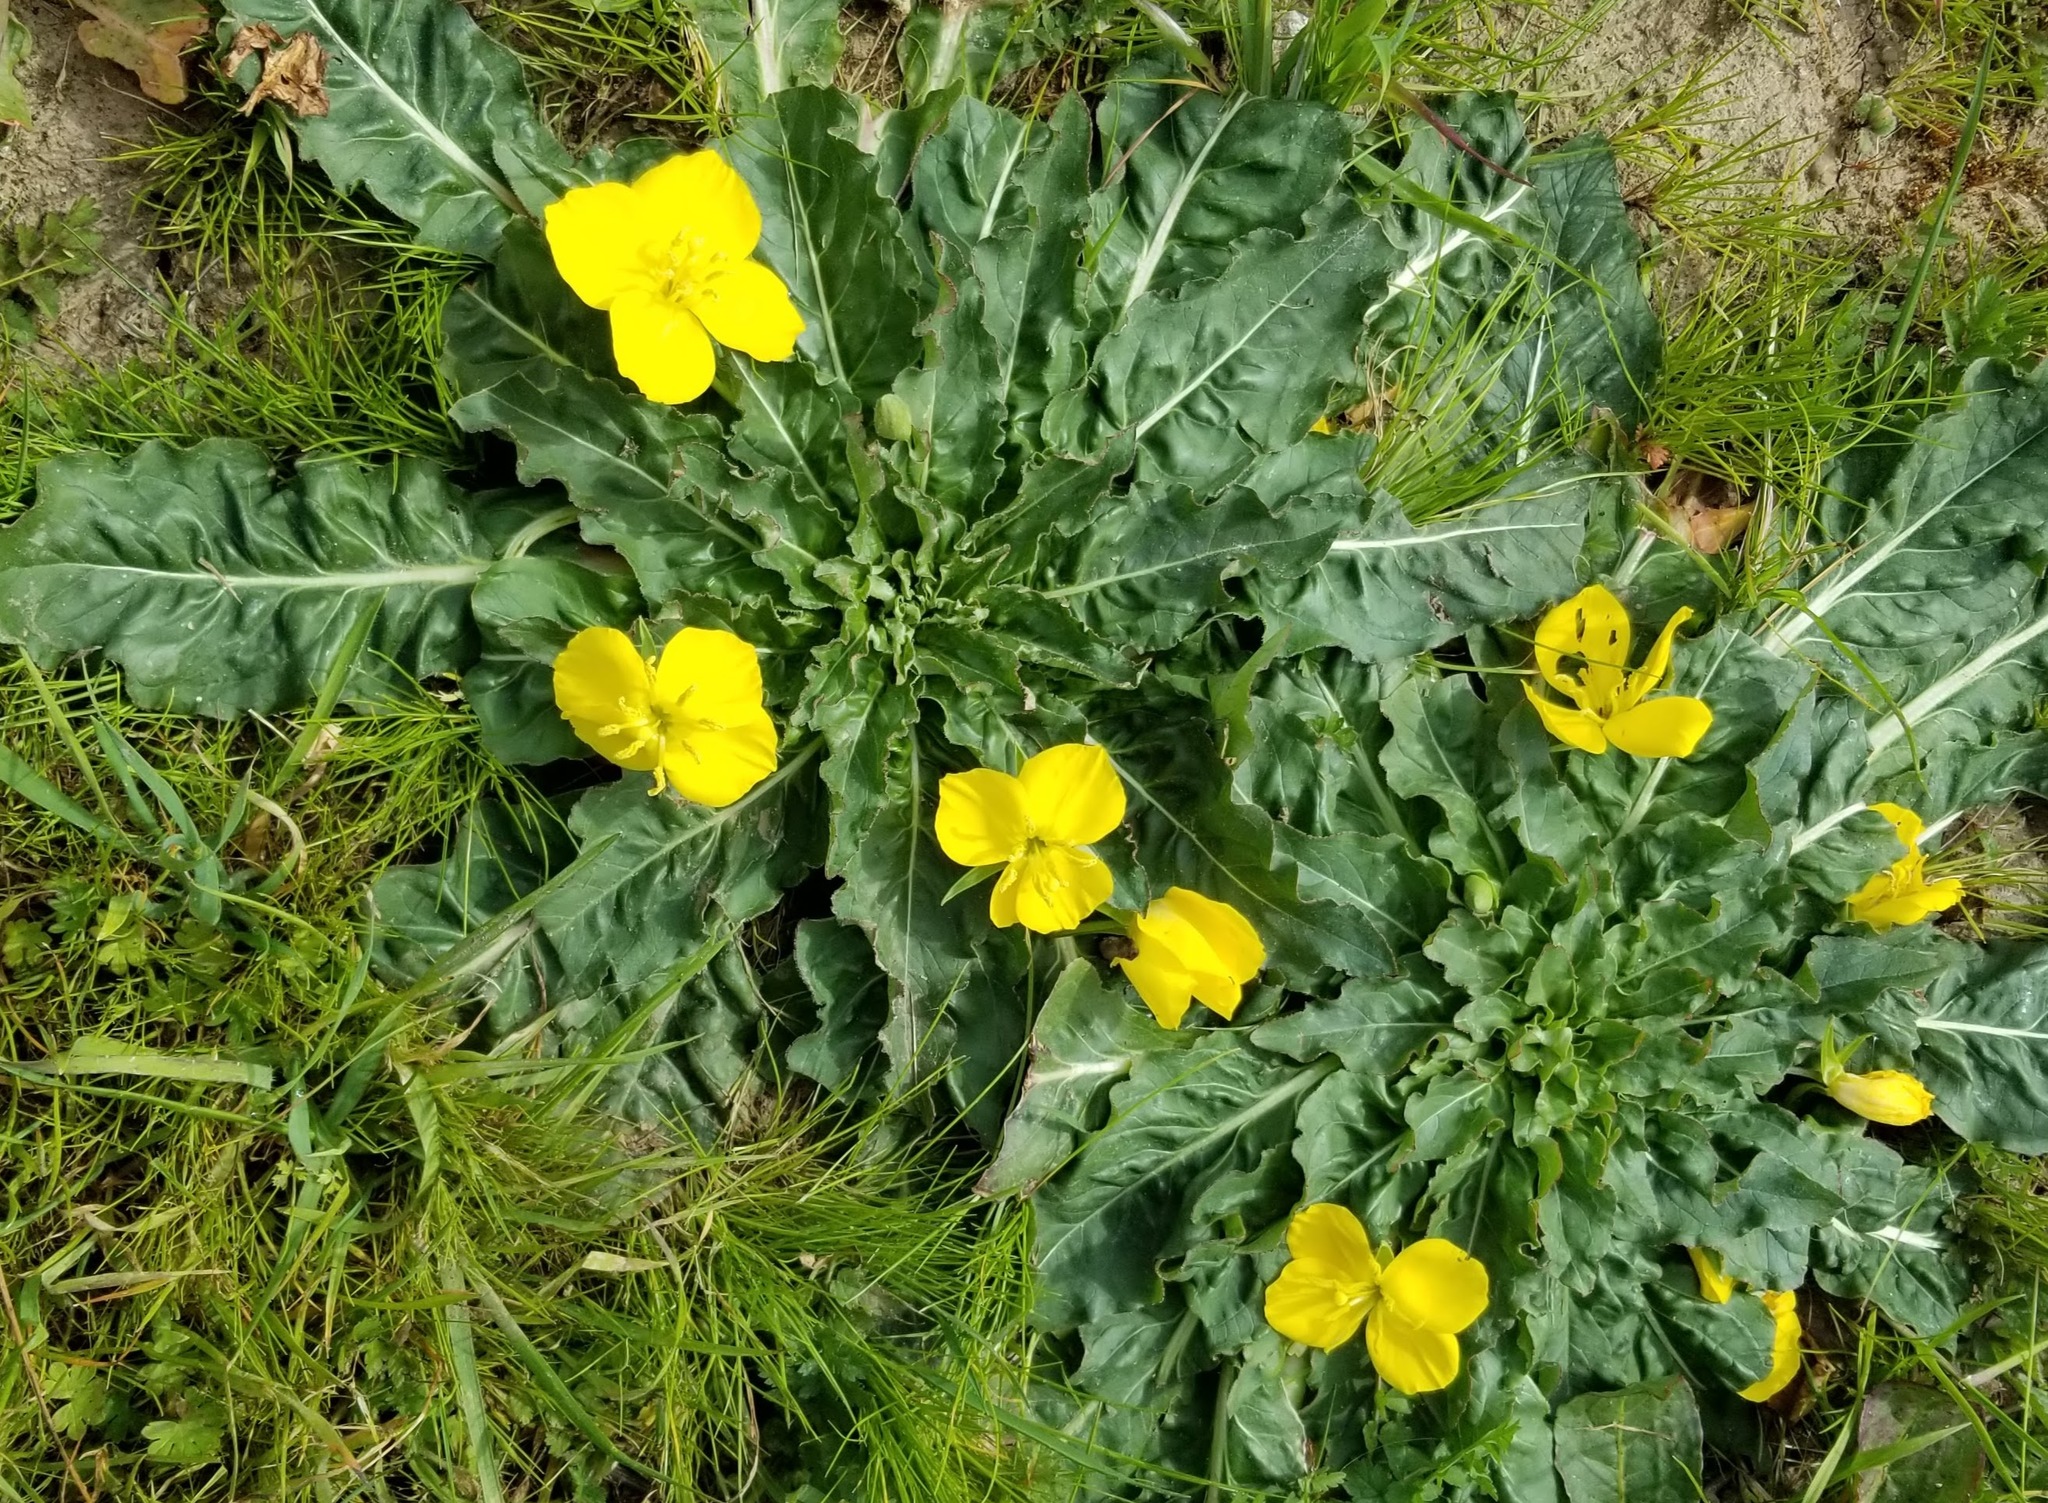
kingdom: Plantae
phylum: Tracheophyta
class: Magnoliopsida
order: Myrtales
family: Onagraceae
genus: Taraxia
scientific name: Taraxia ovata
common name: Goldeneggs
